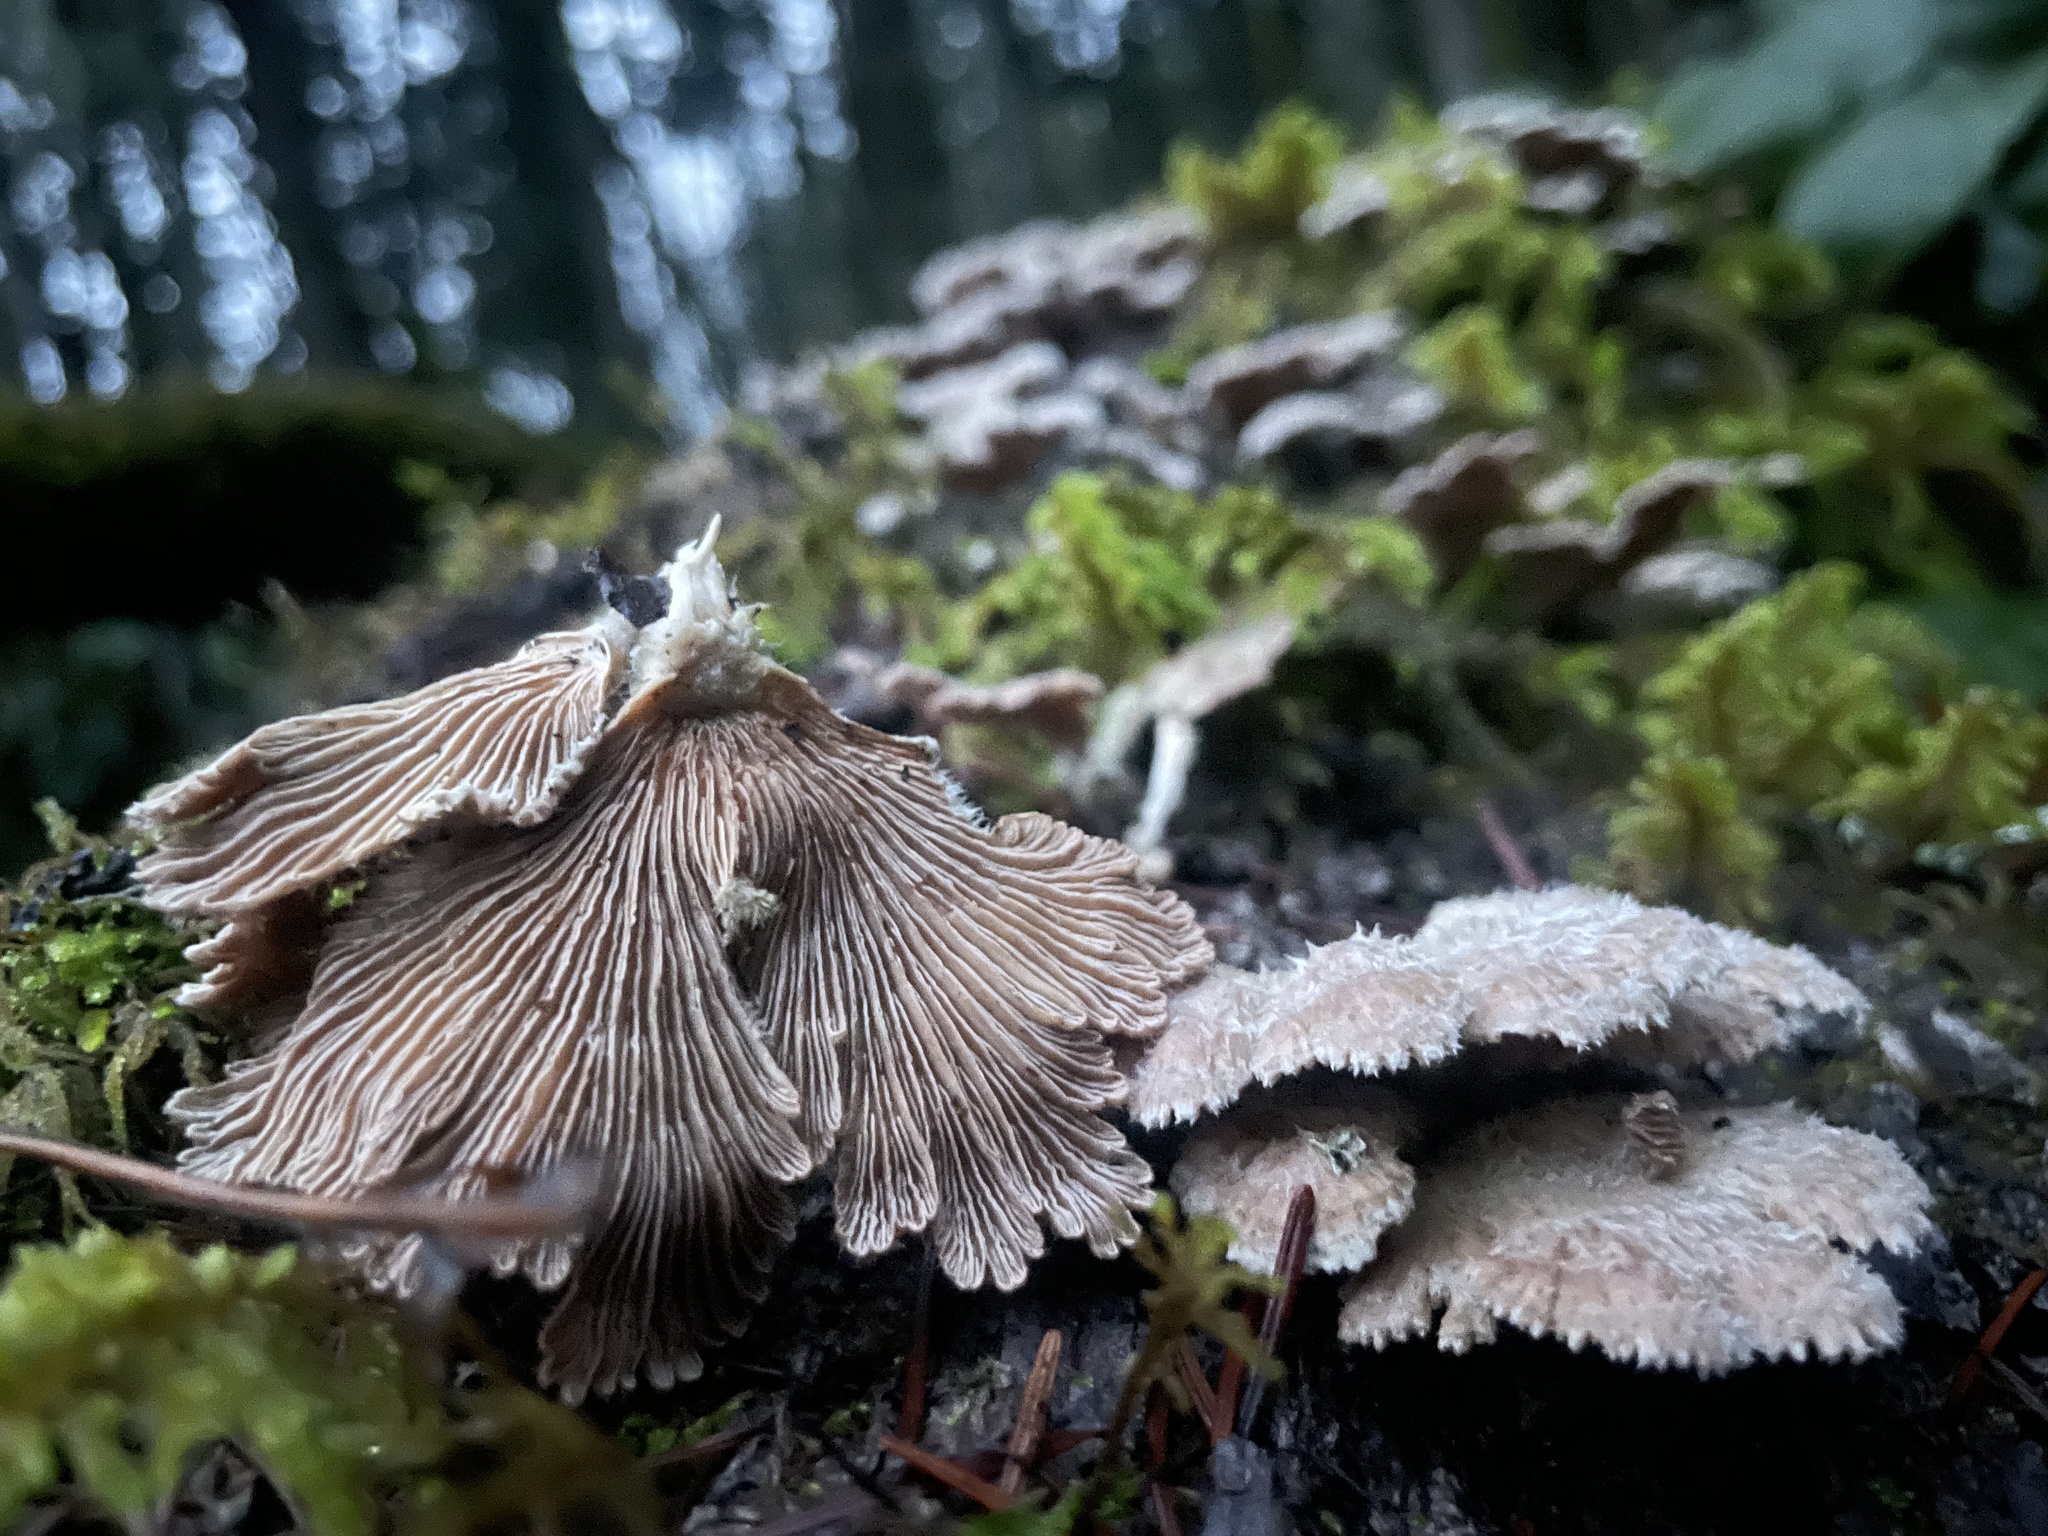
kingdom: Fungi
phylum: Basidiomycota
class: Agaricomycetes
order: Agaricales
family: Schizophyllaceae
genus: Schizophyllum
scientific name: Schizophyllum commune
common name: Common porecrust
